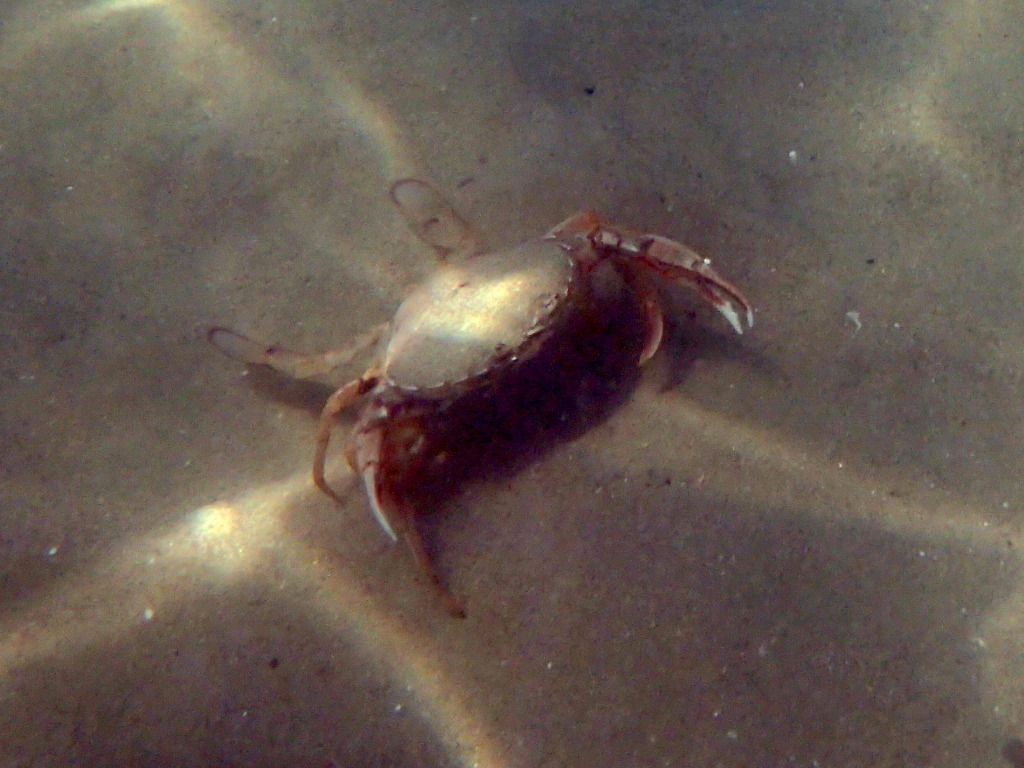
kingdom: Animalia
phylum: Arthropoda
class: Malacostraca
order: Decapoda
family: Ovalipidae
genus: Ovalipes
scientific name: Ovalipes catharus
